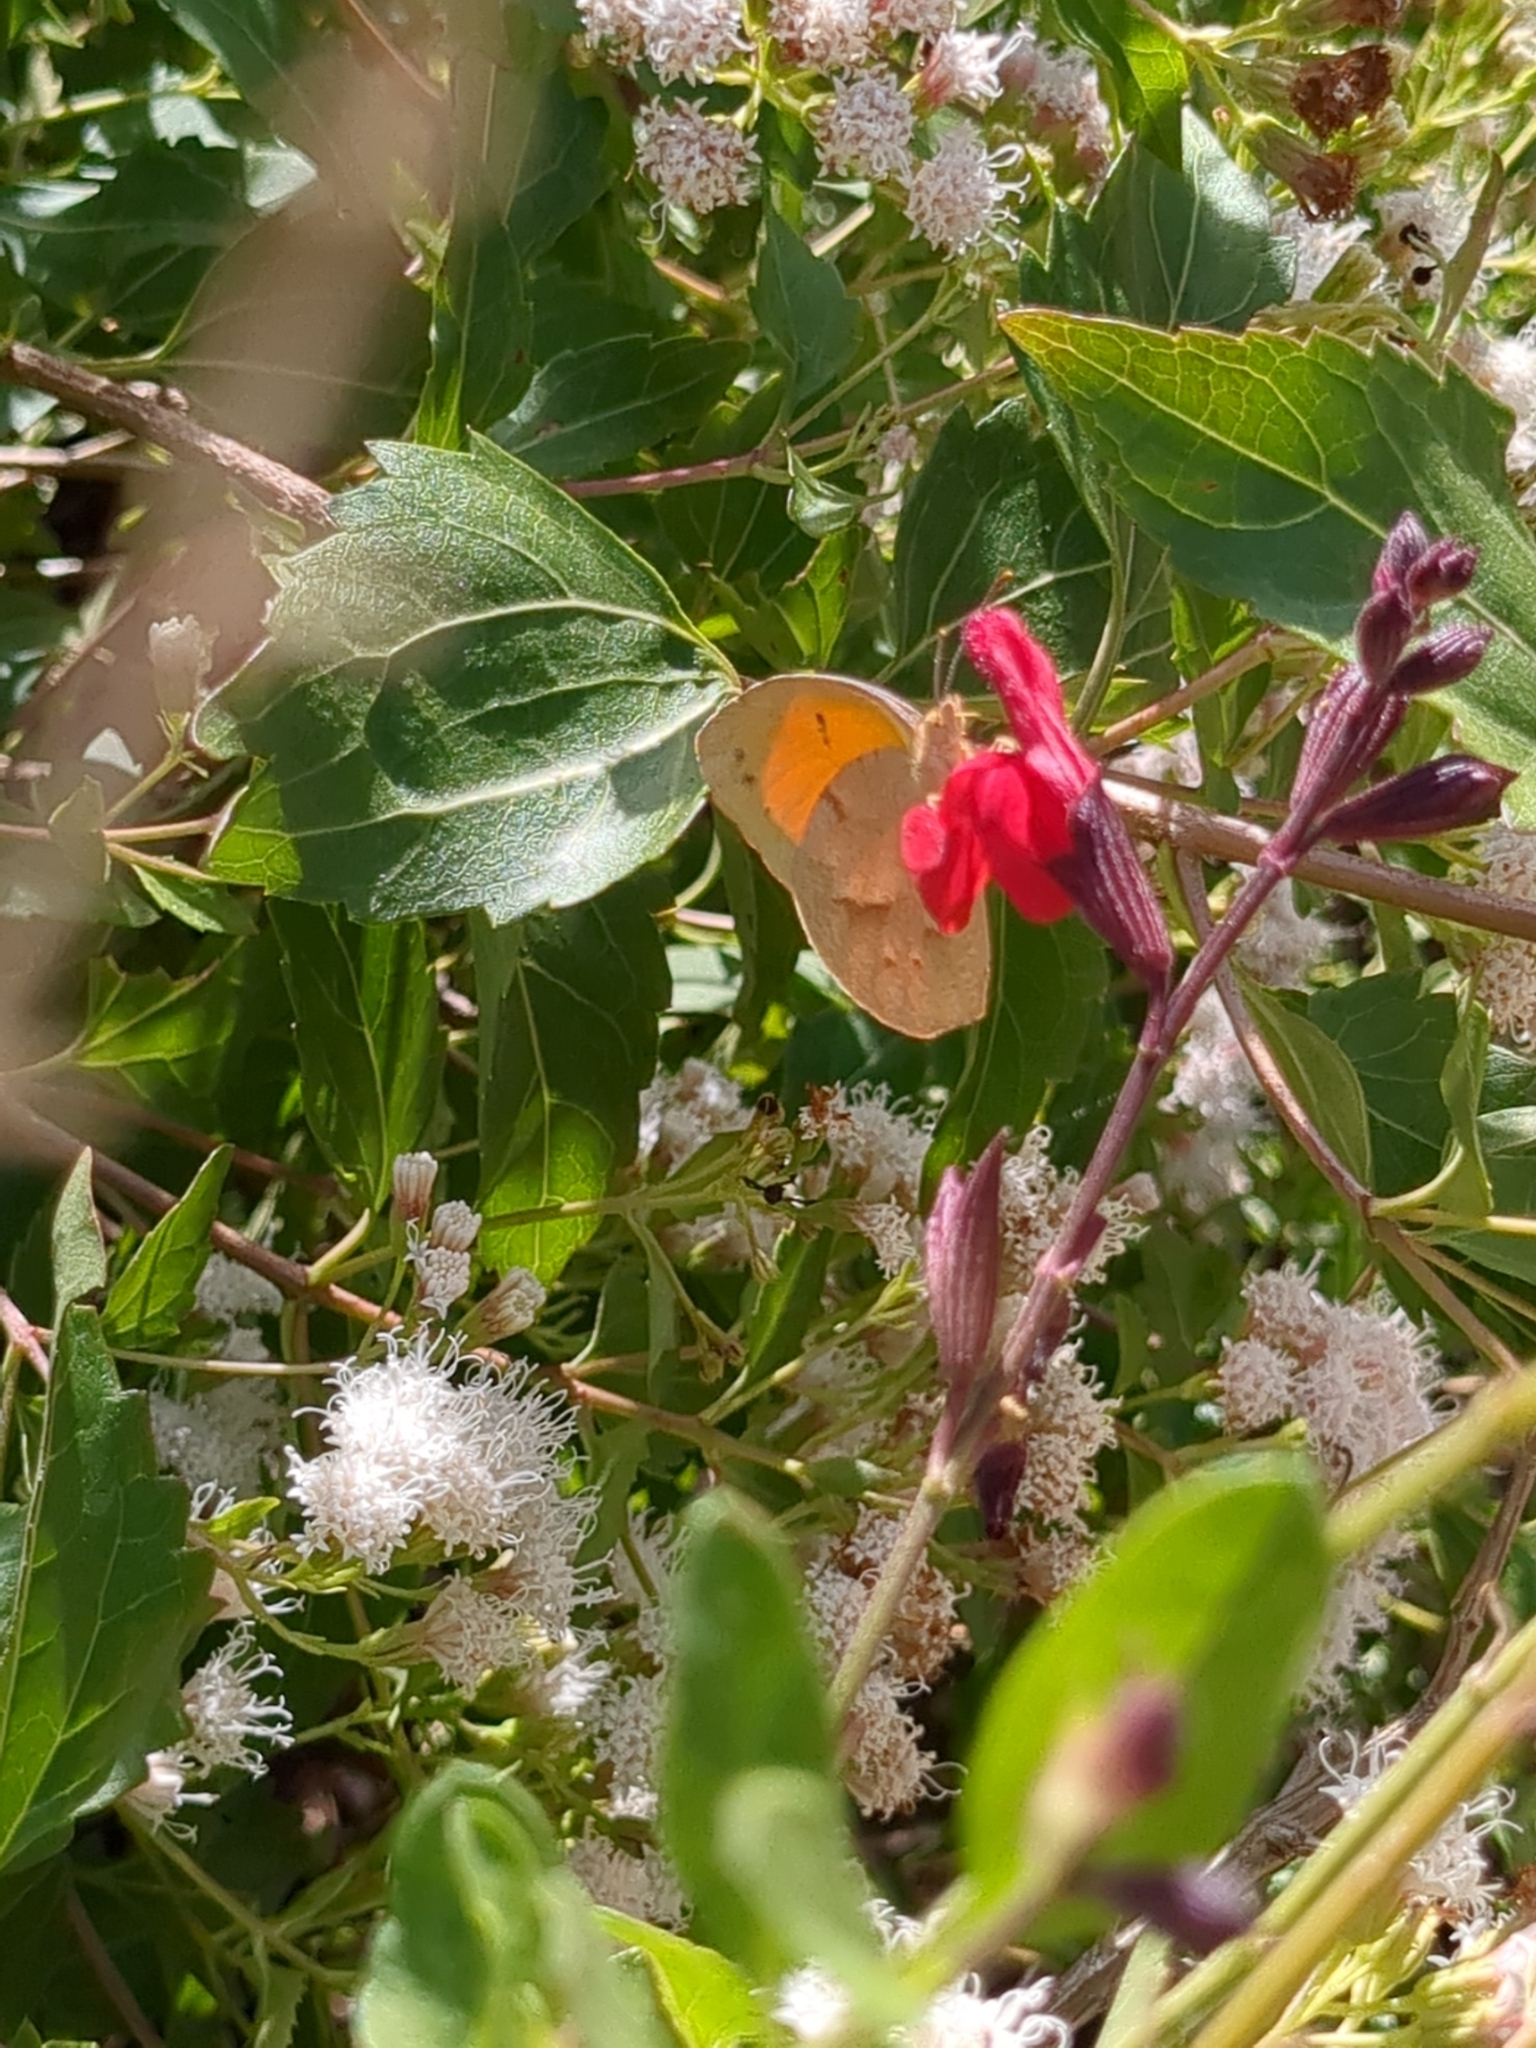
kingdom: Animalia
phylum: Arthropoda
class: Insecta
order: Lepidoptera
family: Pieridae
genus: Abaeis
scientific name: Abaeis nicippe
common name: Sleepy orange
